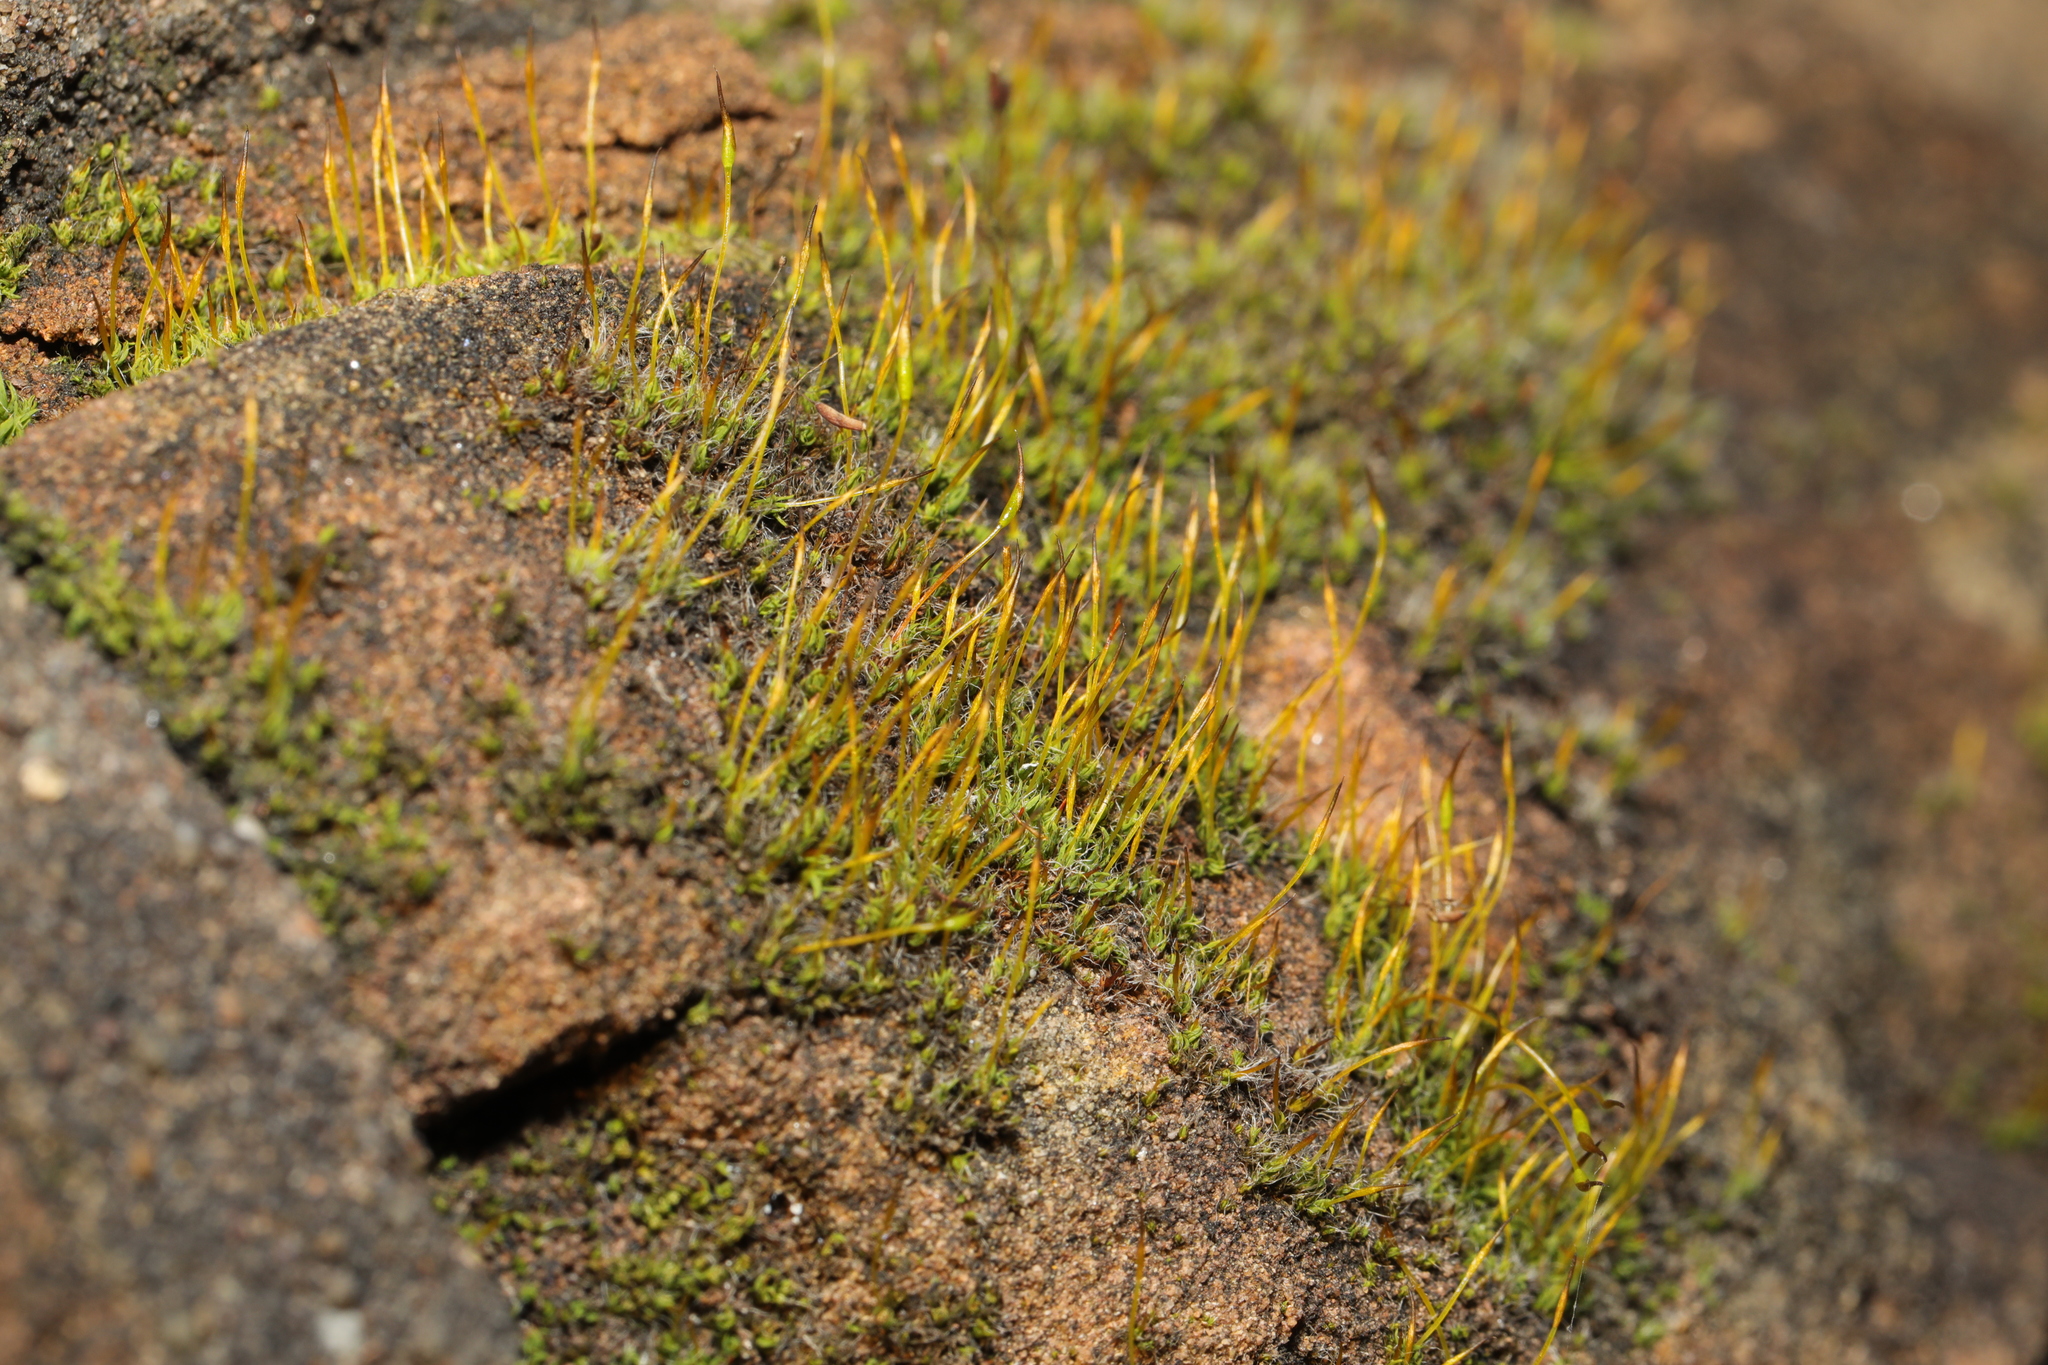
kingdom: Plantae
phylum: Bryophyta
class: Bryopsida
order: Pottiales
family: Pottiaceae
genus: Tortula
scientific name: Tortula muralis
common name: Wall screw-moss
